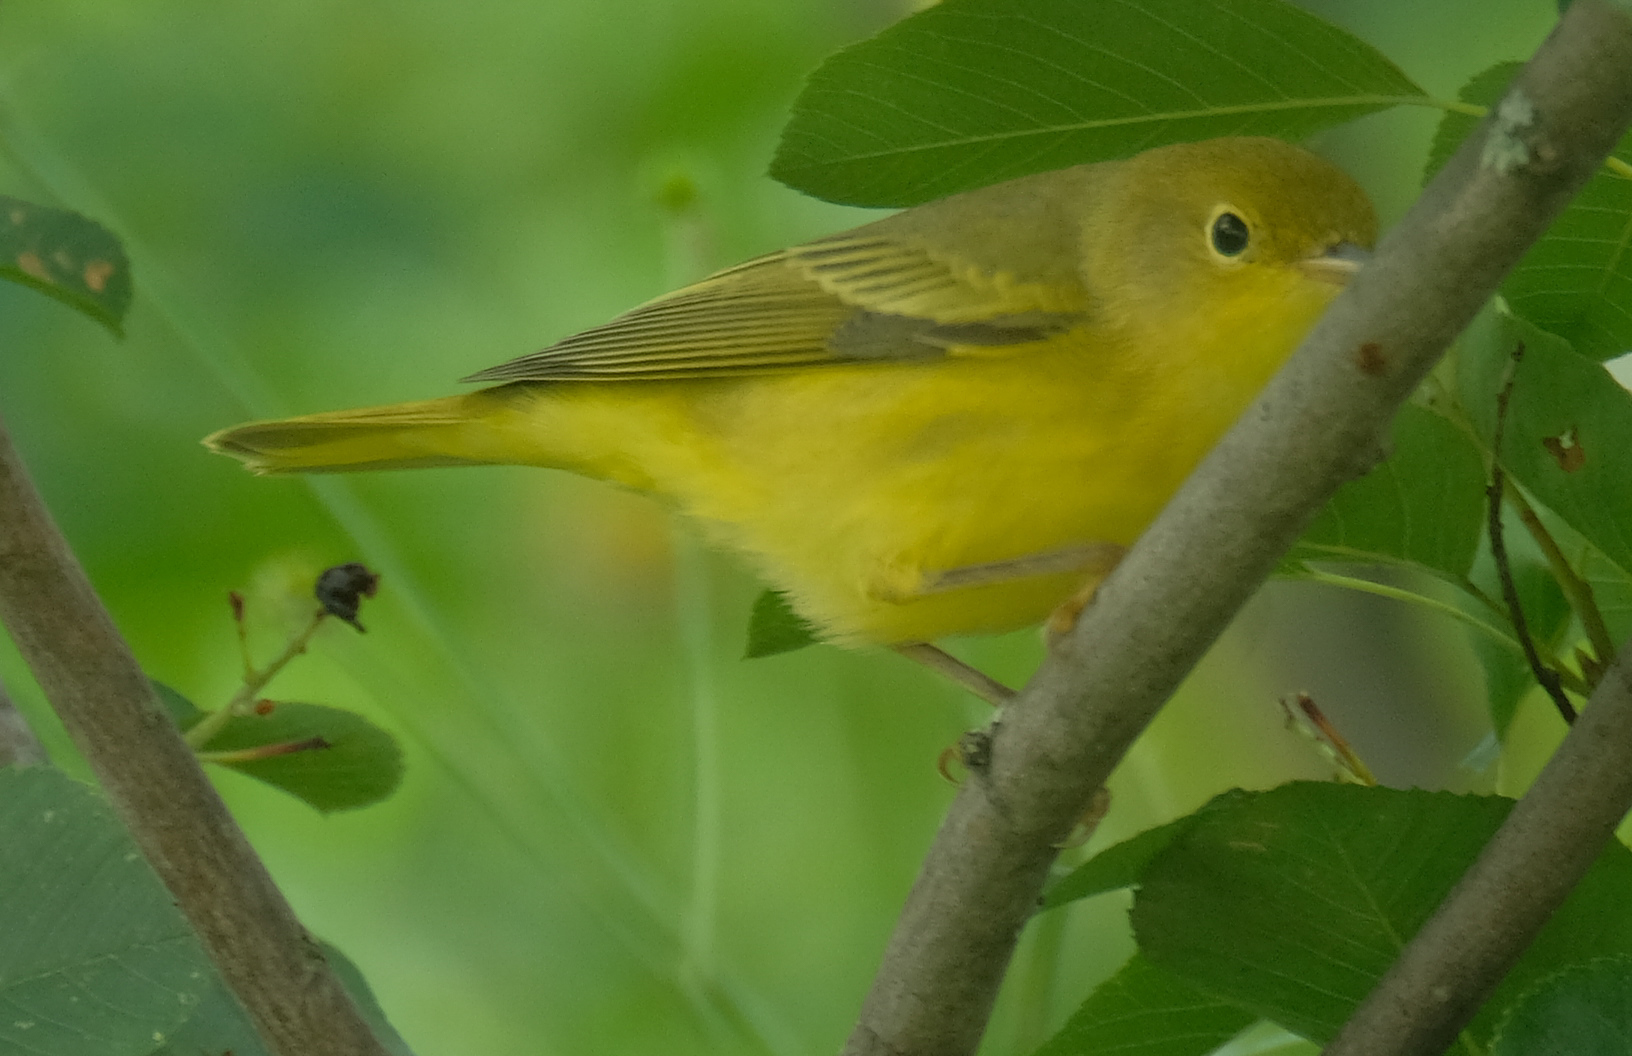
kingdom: Animalia
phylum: Chordata
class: Aves
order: Passeriformes
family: Parulidae
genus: Setophaga
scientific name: Setophaga petechia
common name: Yellow warbler
